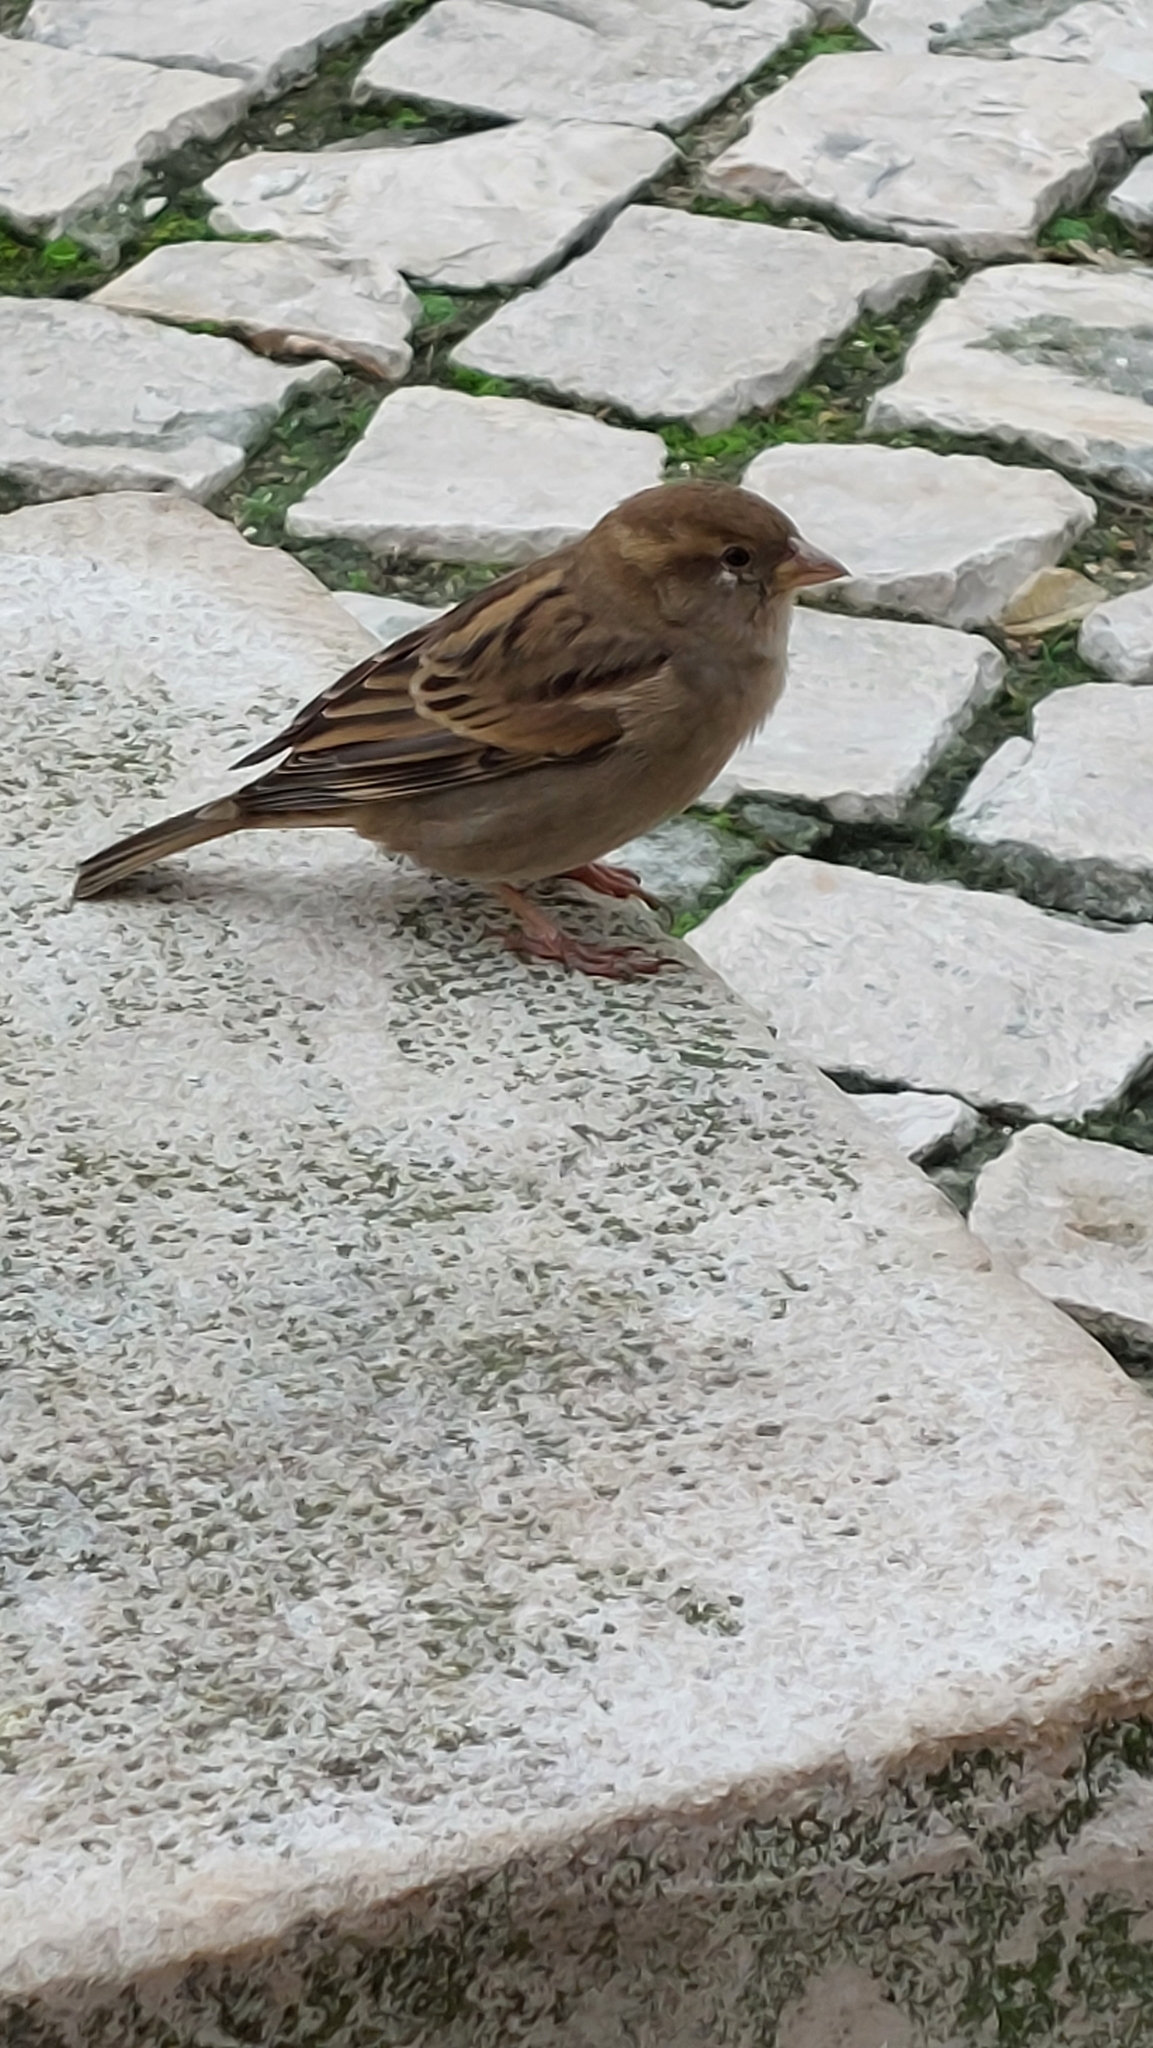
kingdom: Animalia
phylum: Chordata
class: Aves
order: Passeriformes
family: Passeridae
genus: Passer
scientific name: Passer domesticus
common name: House sparrow
